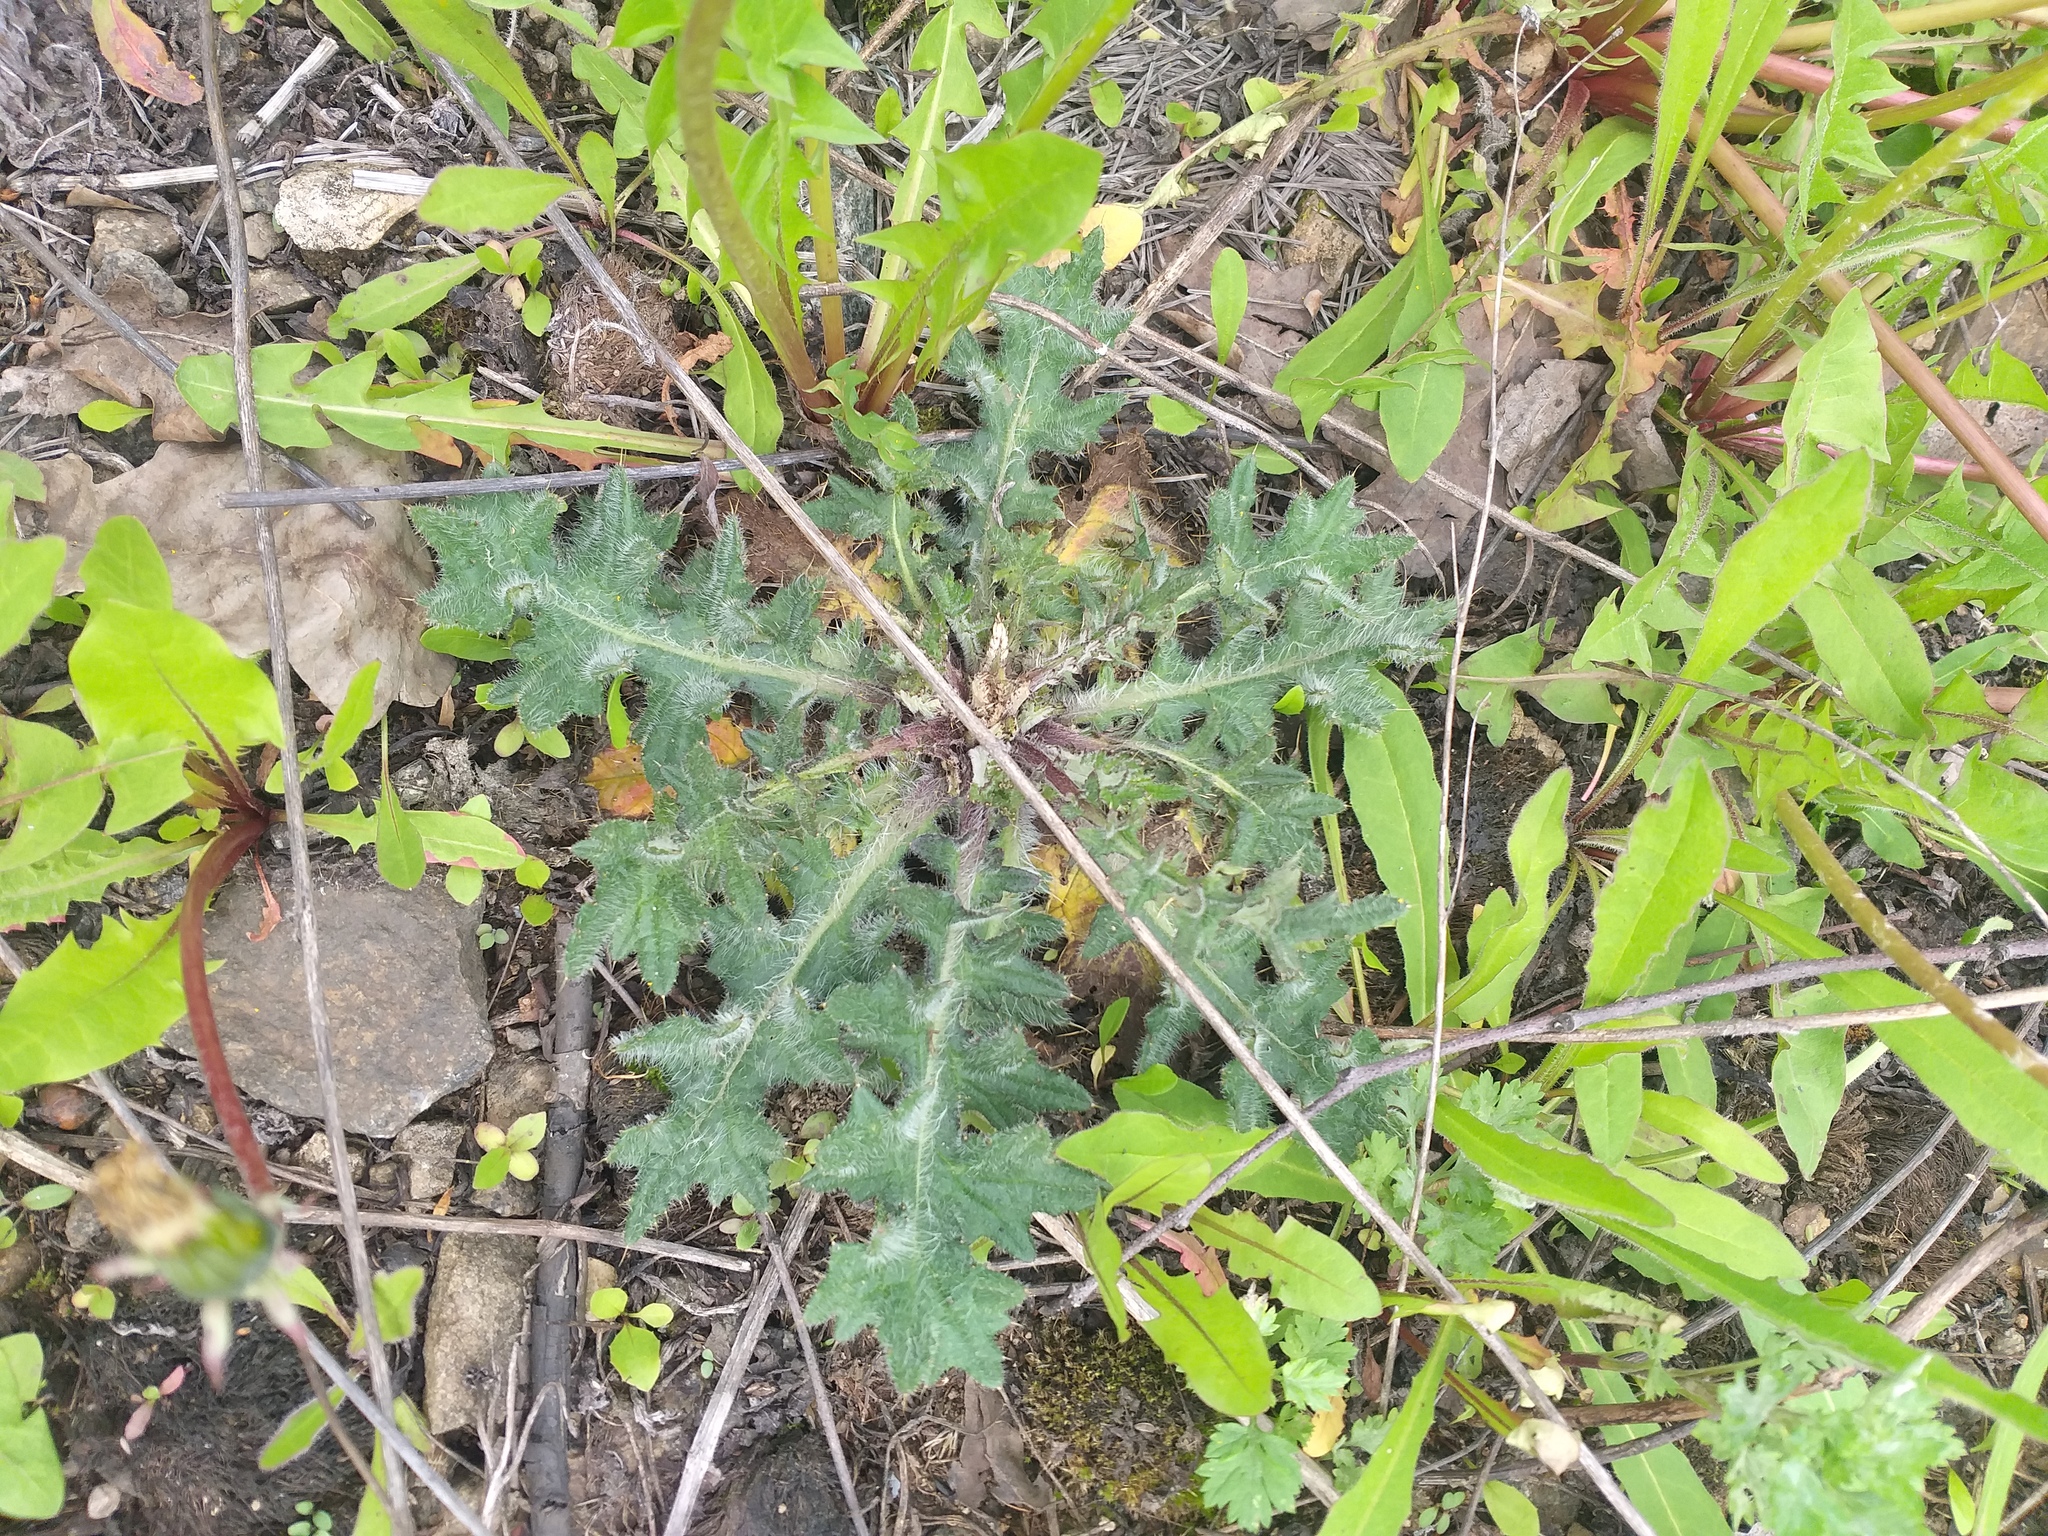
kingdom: Plantae
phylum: Tracheophyta
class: Magnoliopsida
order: Asterales
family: Asteraceae
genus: Cirsium
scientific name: Cirsium vulgare
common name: Bull thistle
